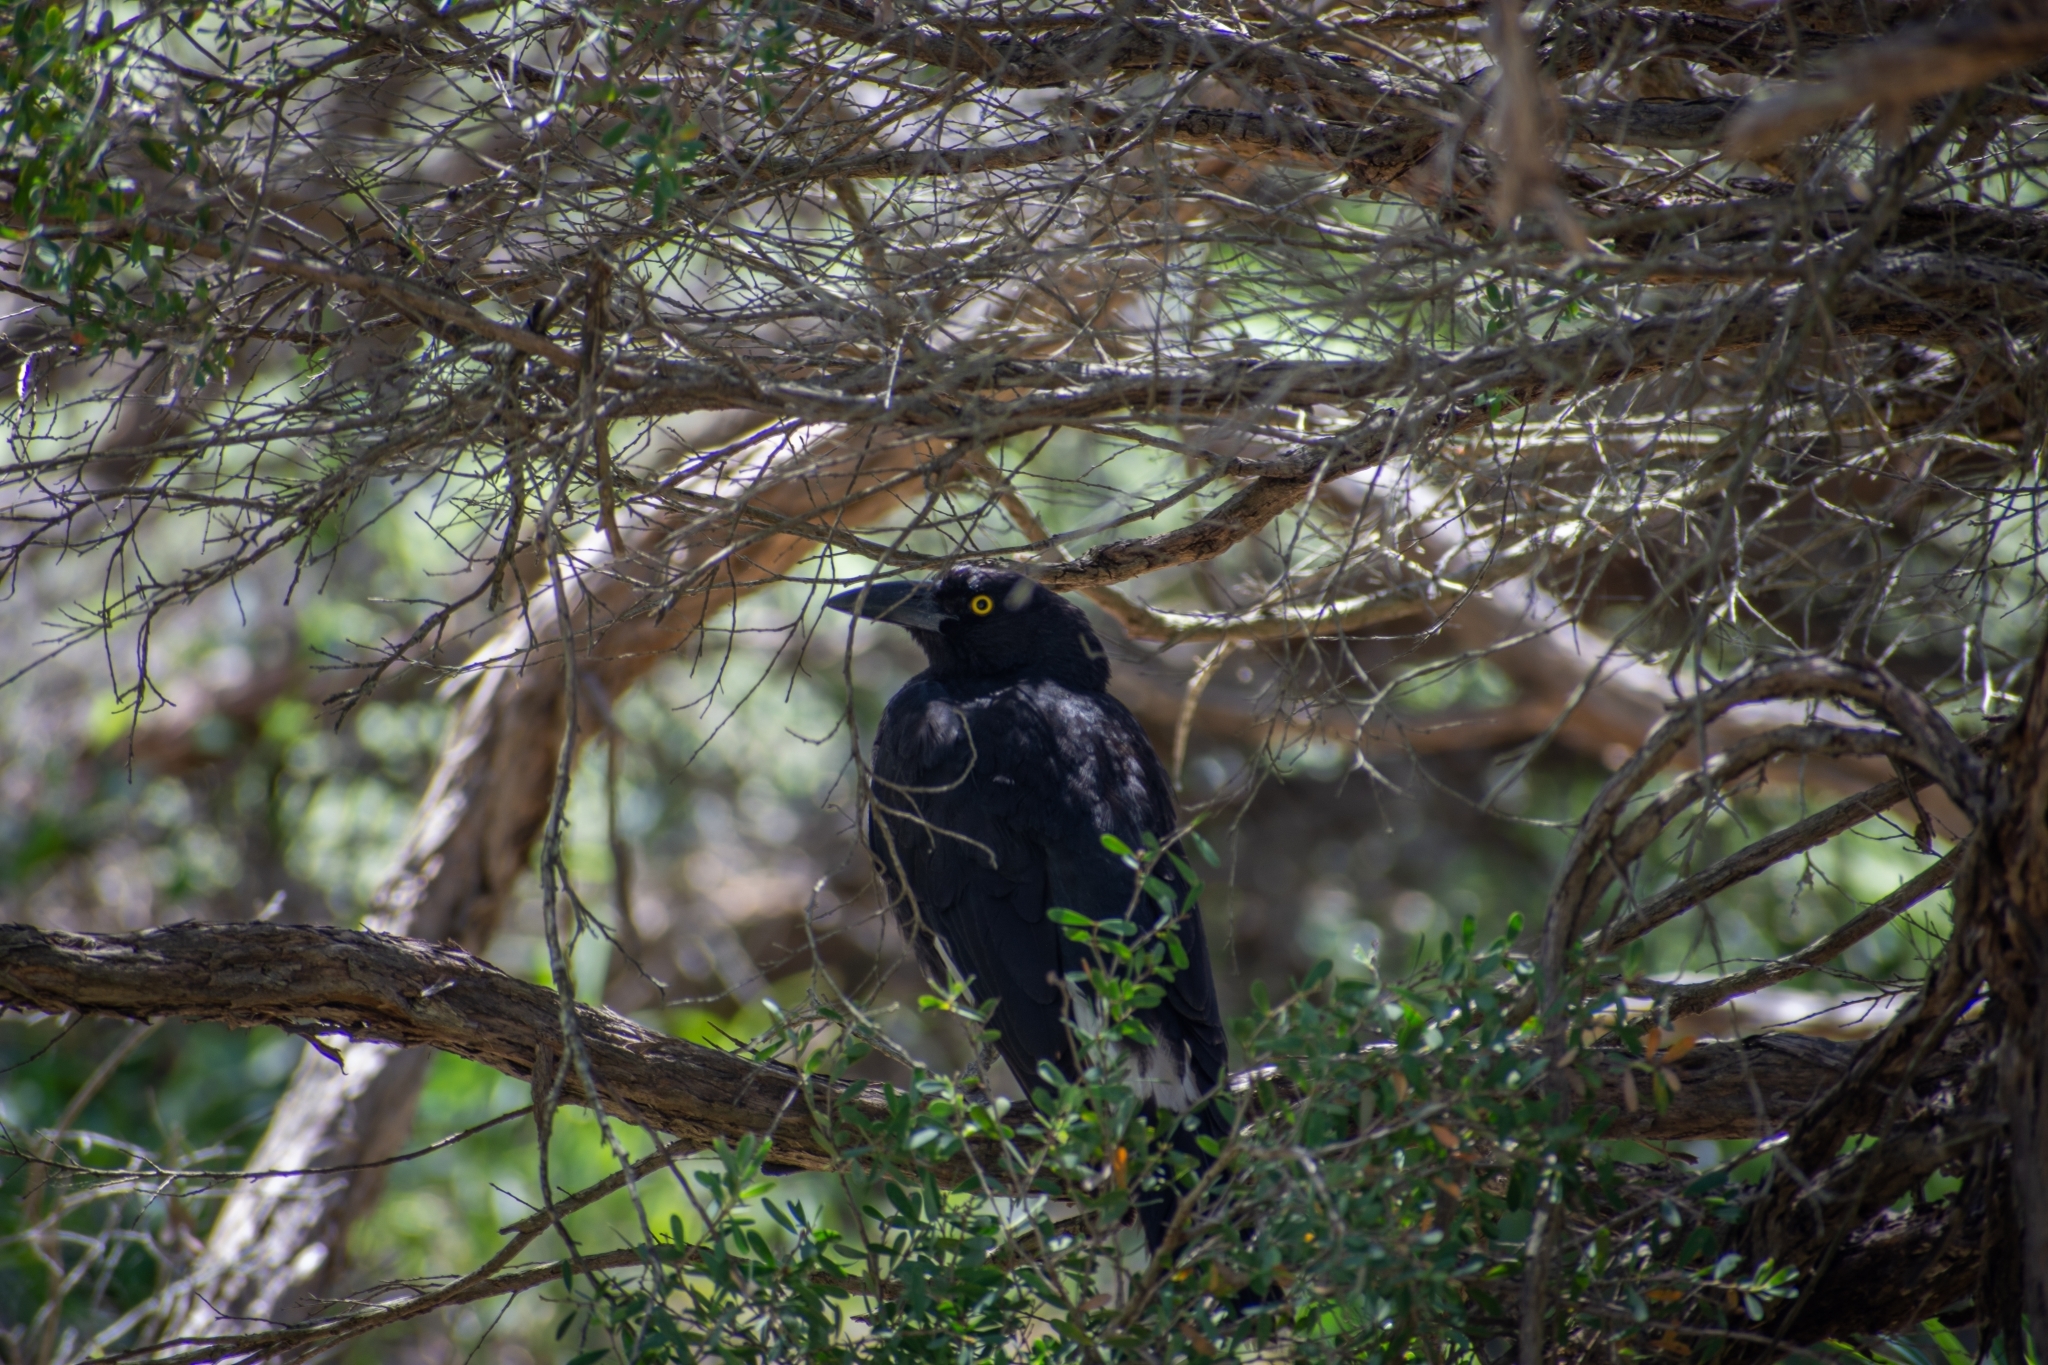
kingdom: Animalia
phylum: Chordata
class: Aves
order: Passeriformes
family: Cracticidae
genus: Strepera
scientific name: Strepera graculina
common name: Pied currawong
